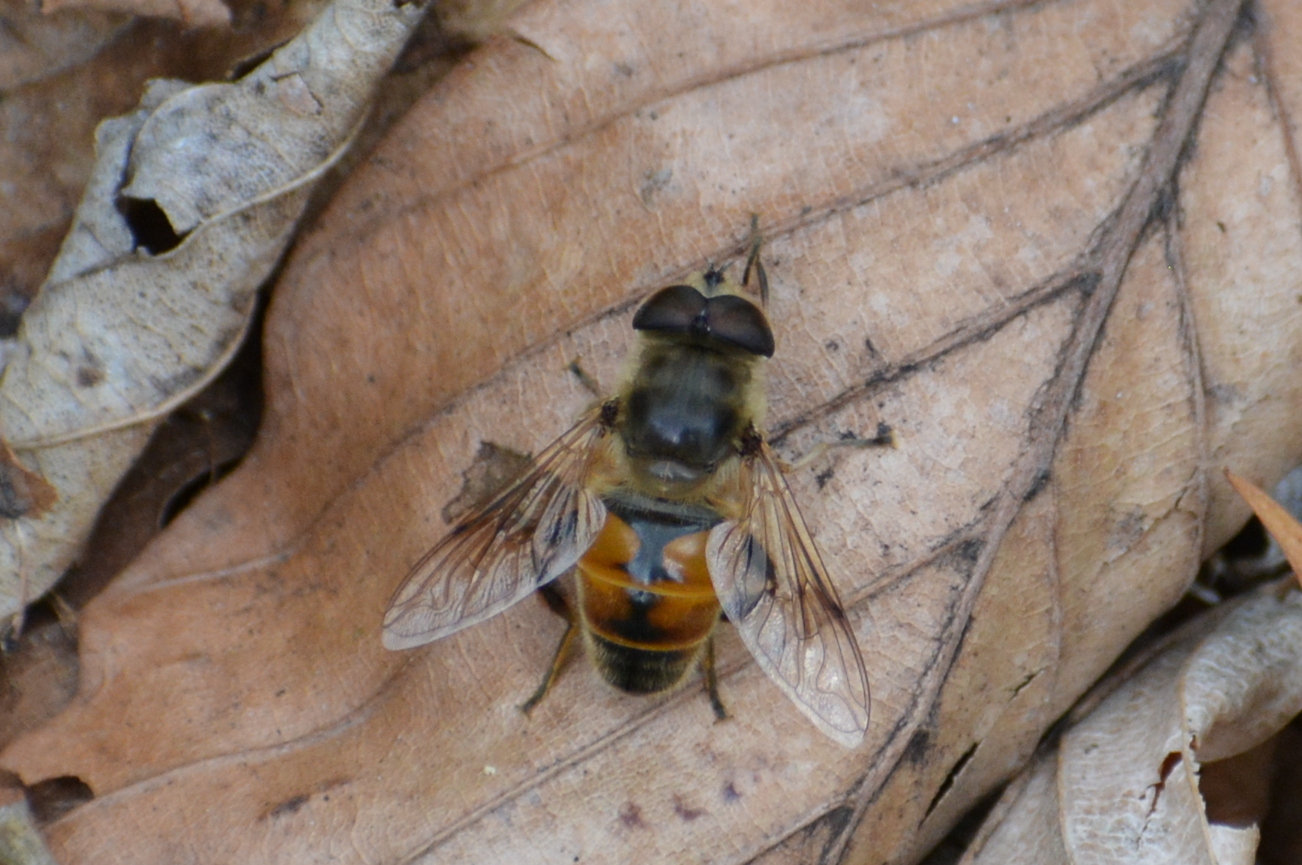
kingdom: Animalia
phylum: Arthropoda
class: Insecta
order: Diptera
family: Syrphidae
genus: Eristalis
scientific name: Eristalis tenax
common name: Drone fly
